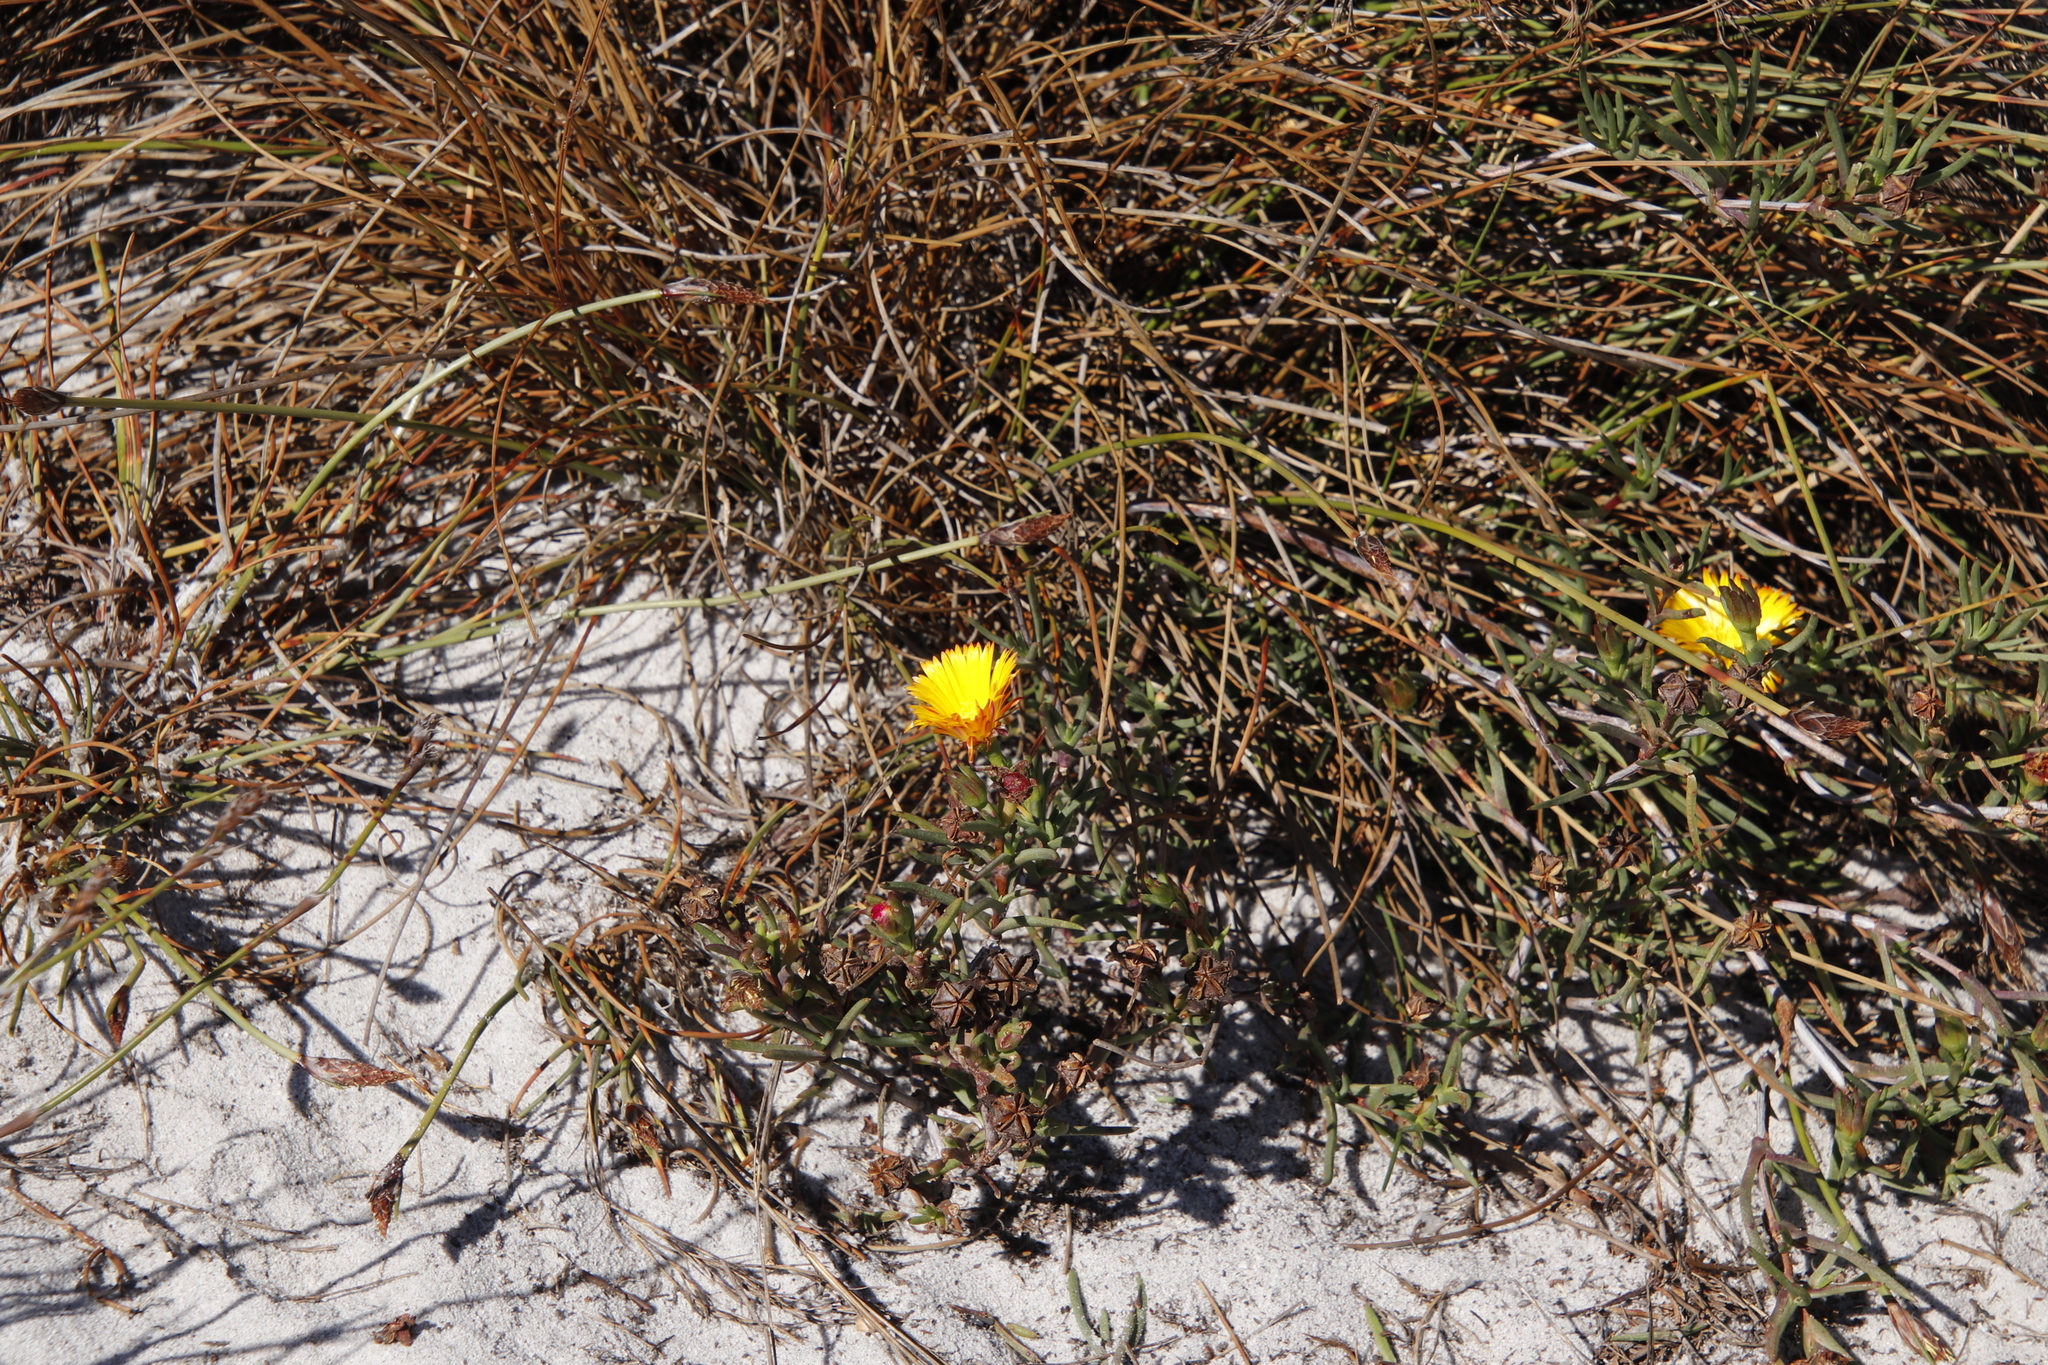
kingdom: Plantae
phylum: Tracheophyta
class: Magnoliopsida
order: Caryophyllales
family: Aizoaceae
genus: Lampranthus
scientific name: Lampranthus bicolor
